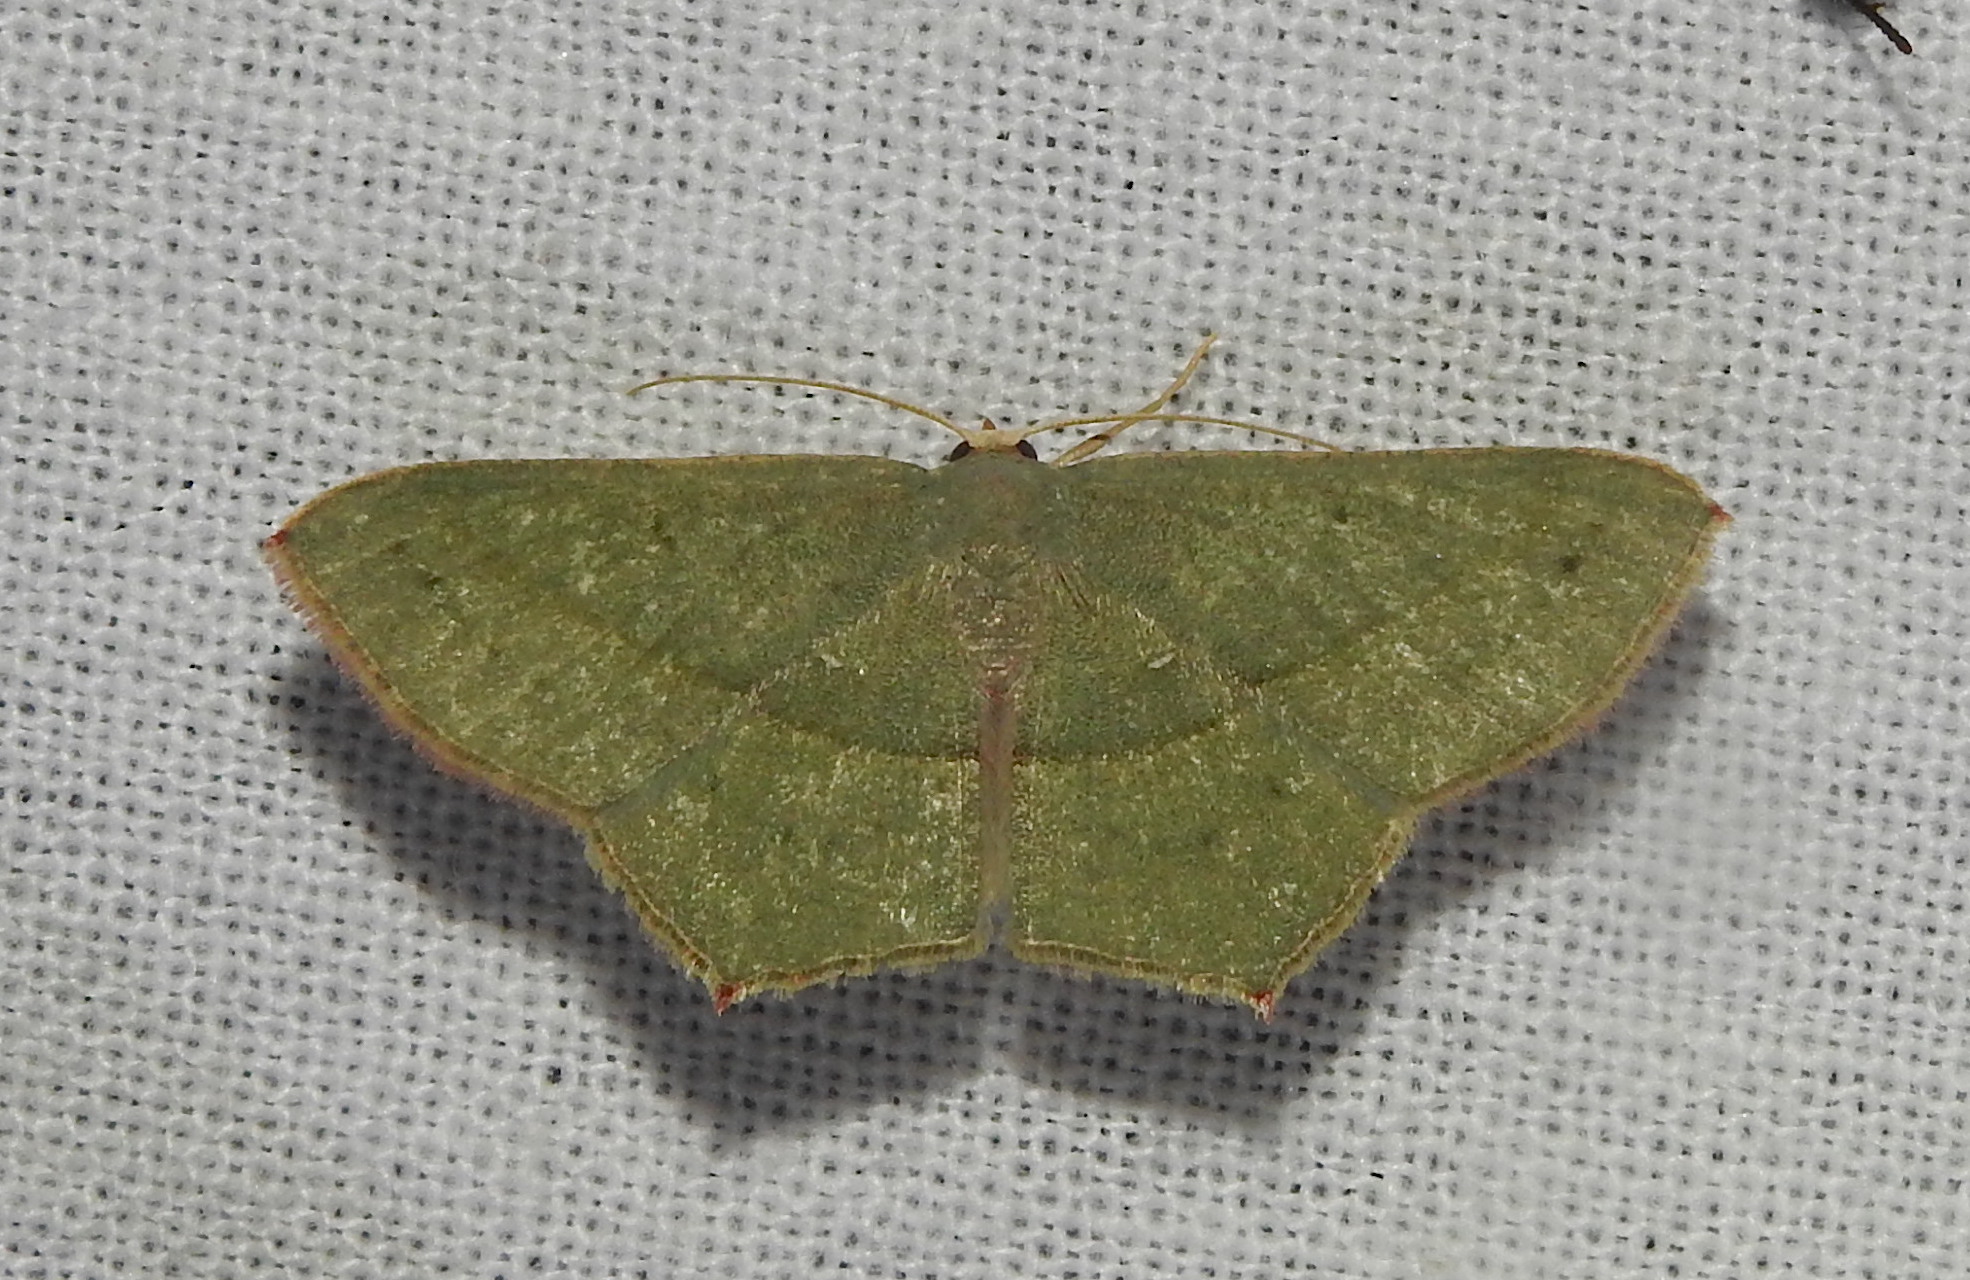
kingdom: Animalia
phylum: Arthropoda
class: Insecta
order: Lepidoptera
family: Geometridae
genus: Traminda
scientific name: Traminda mundissima
